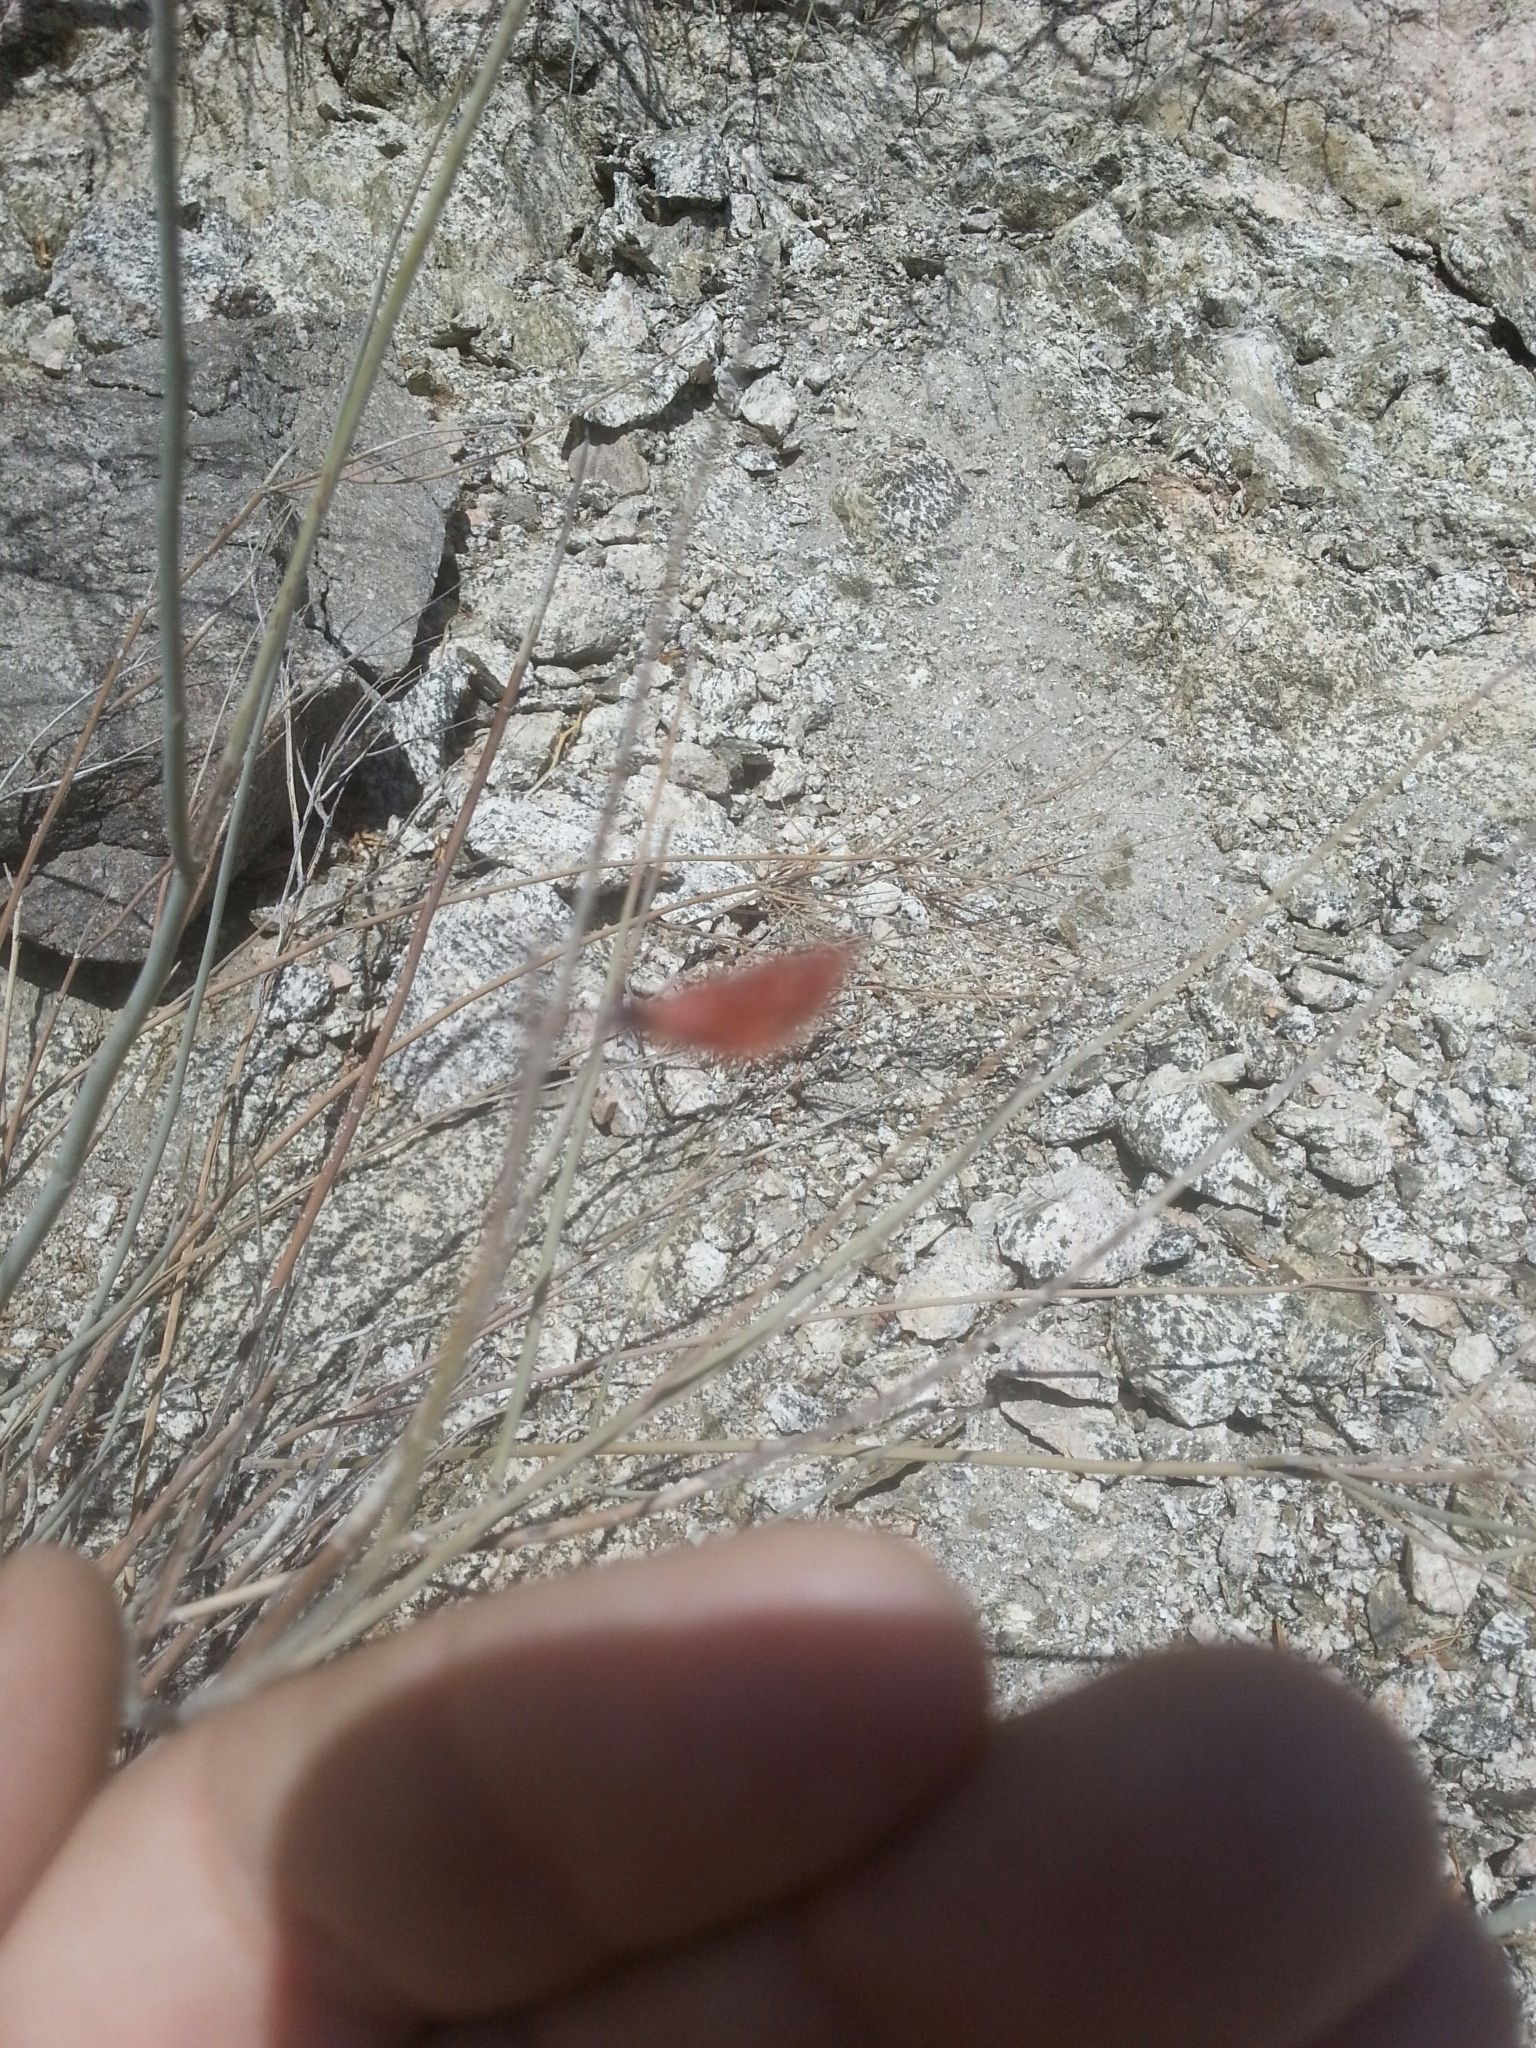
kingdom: Plantae
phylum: Tracheophyta
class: Magnoliopsida
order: Fabales
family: Fabaceae
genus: Hoffmannseggia
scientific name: Hoffmannseggia microphylla
